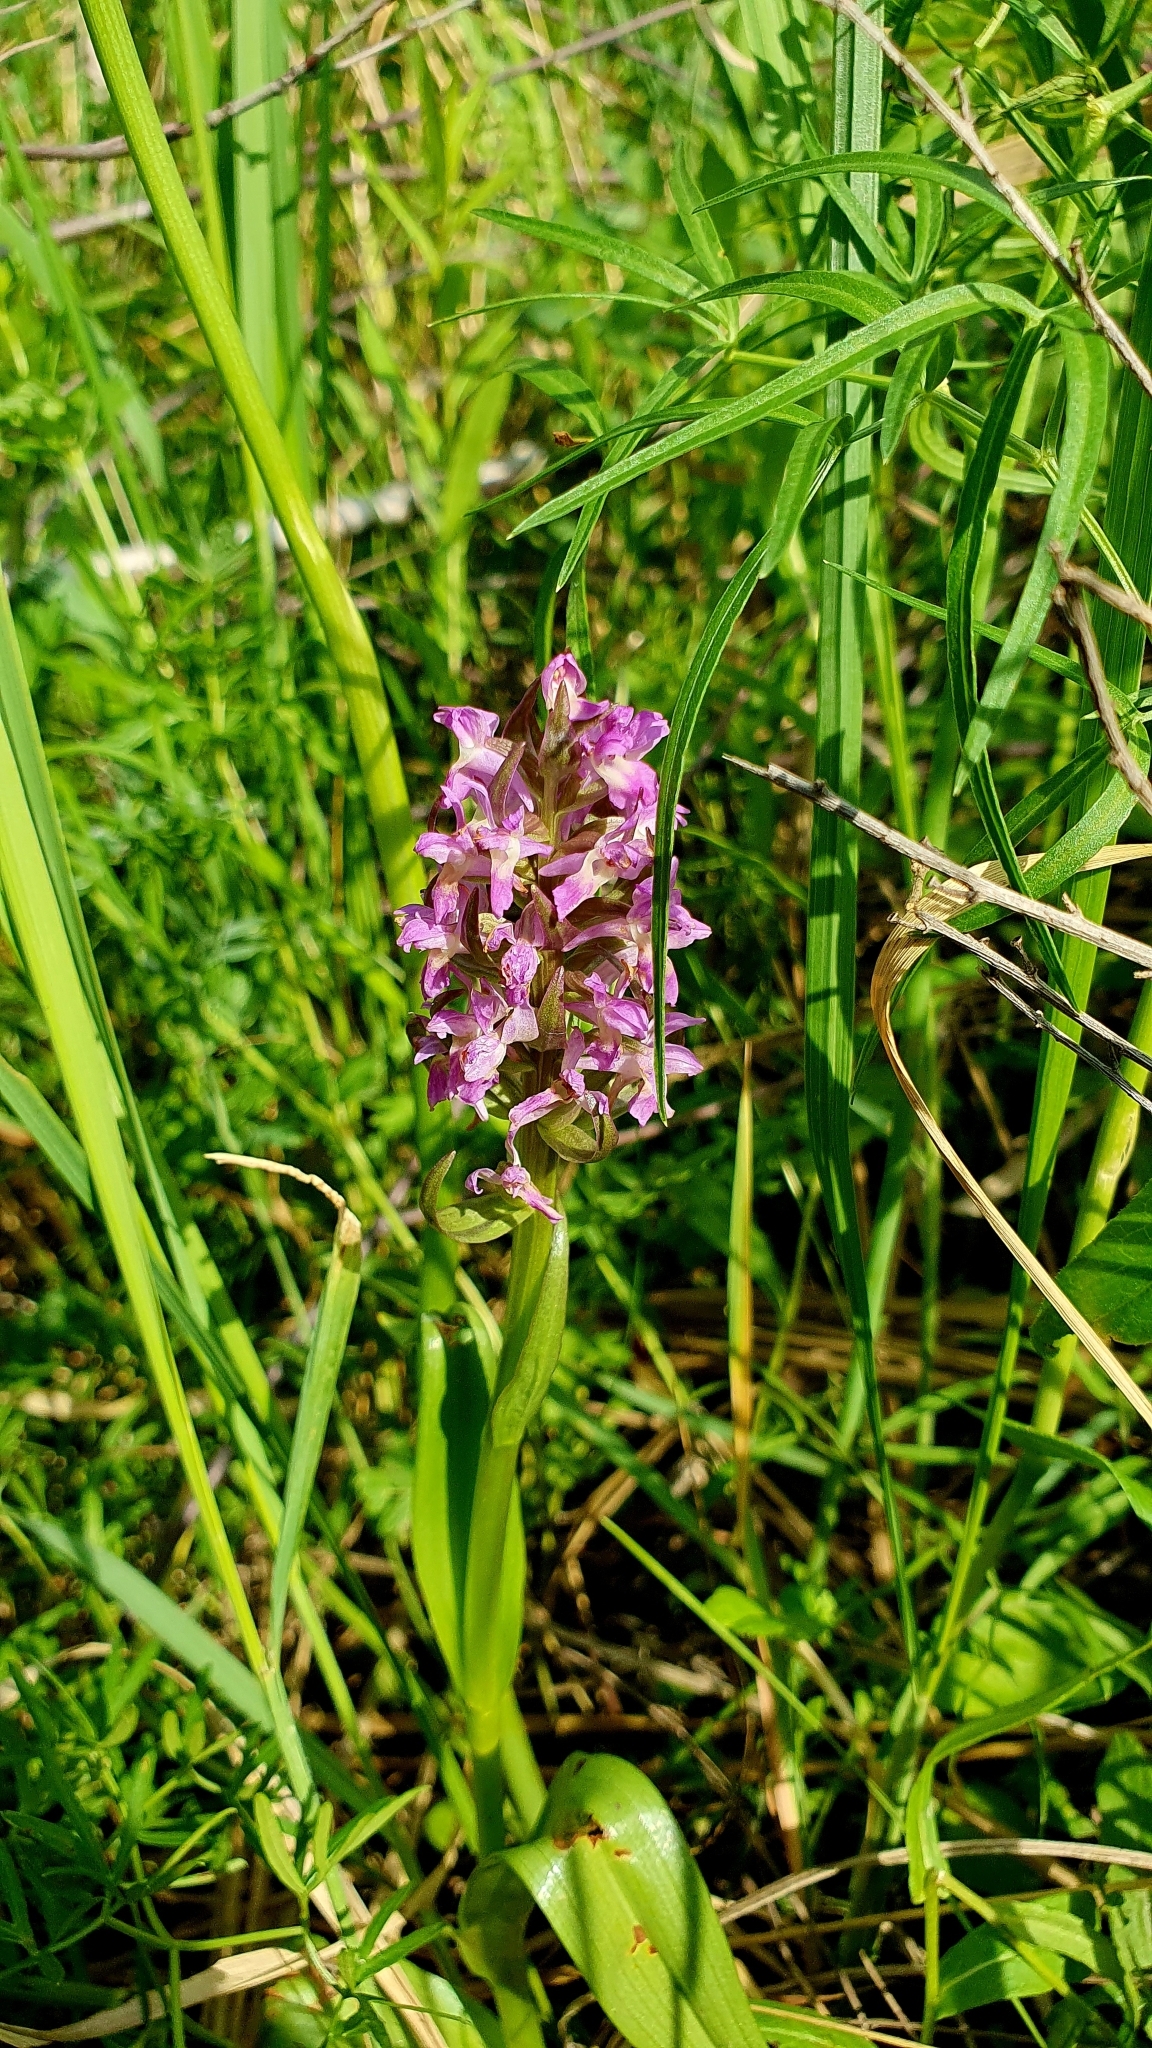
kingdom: Plantae
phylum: Tracheophyta
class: Liliopsida
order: Asparagales
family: Orchidaceae
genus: Dactylorhiza
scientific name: Dactylorhiza incarnata
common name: Early marsh-orchid
